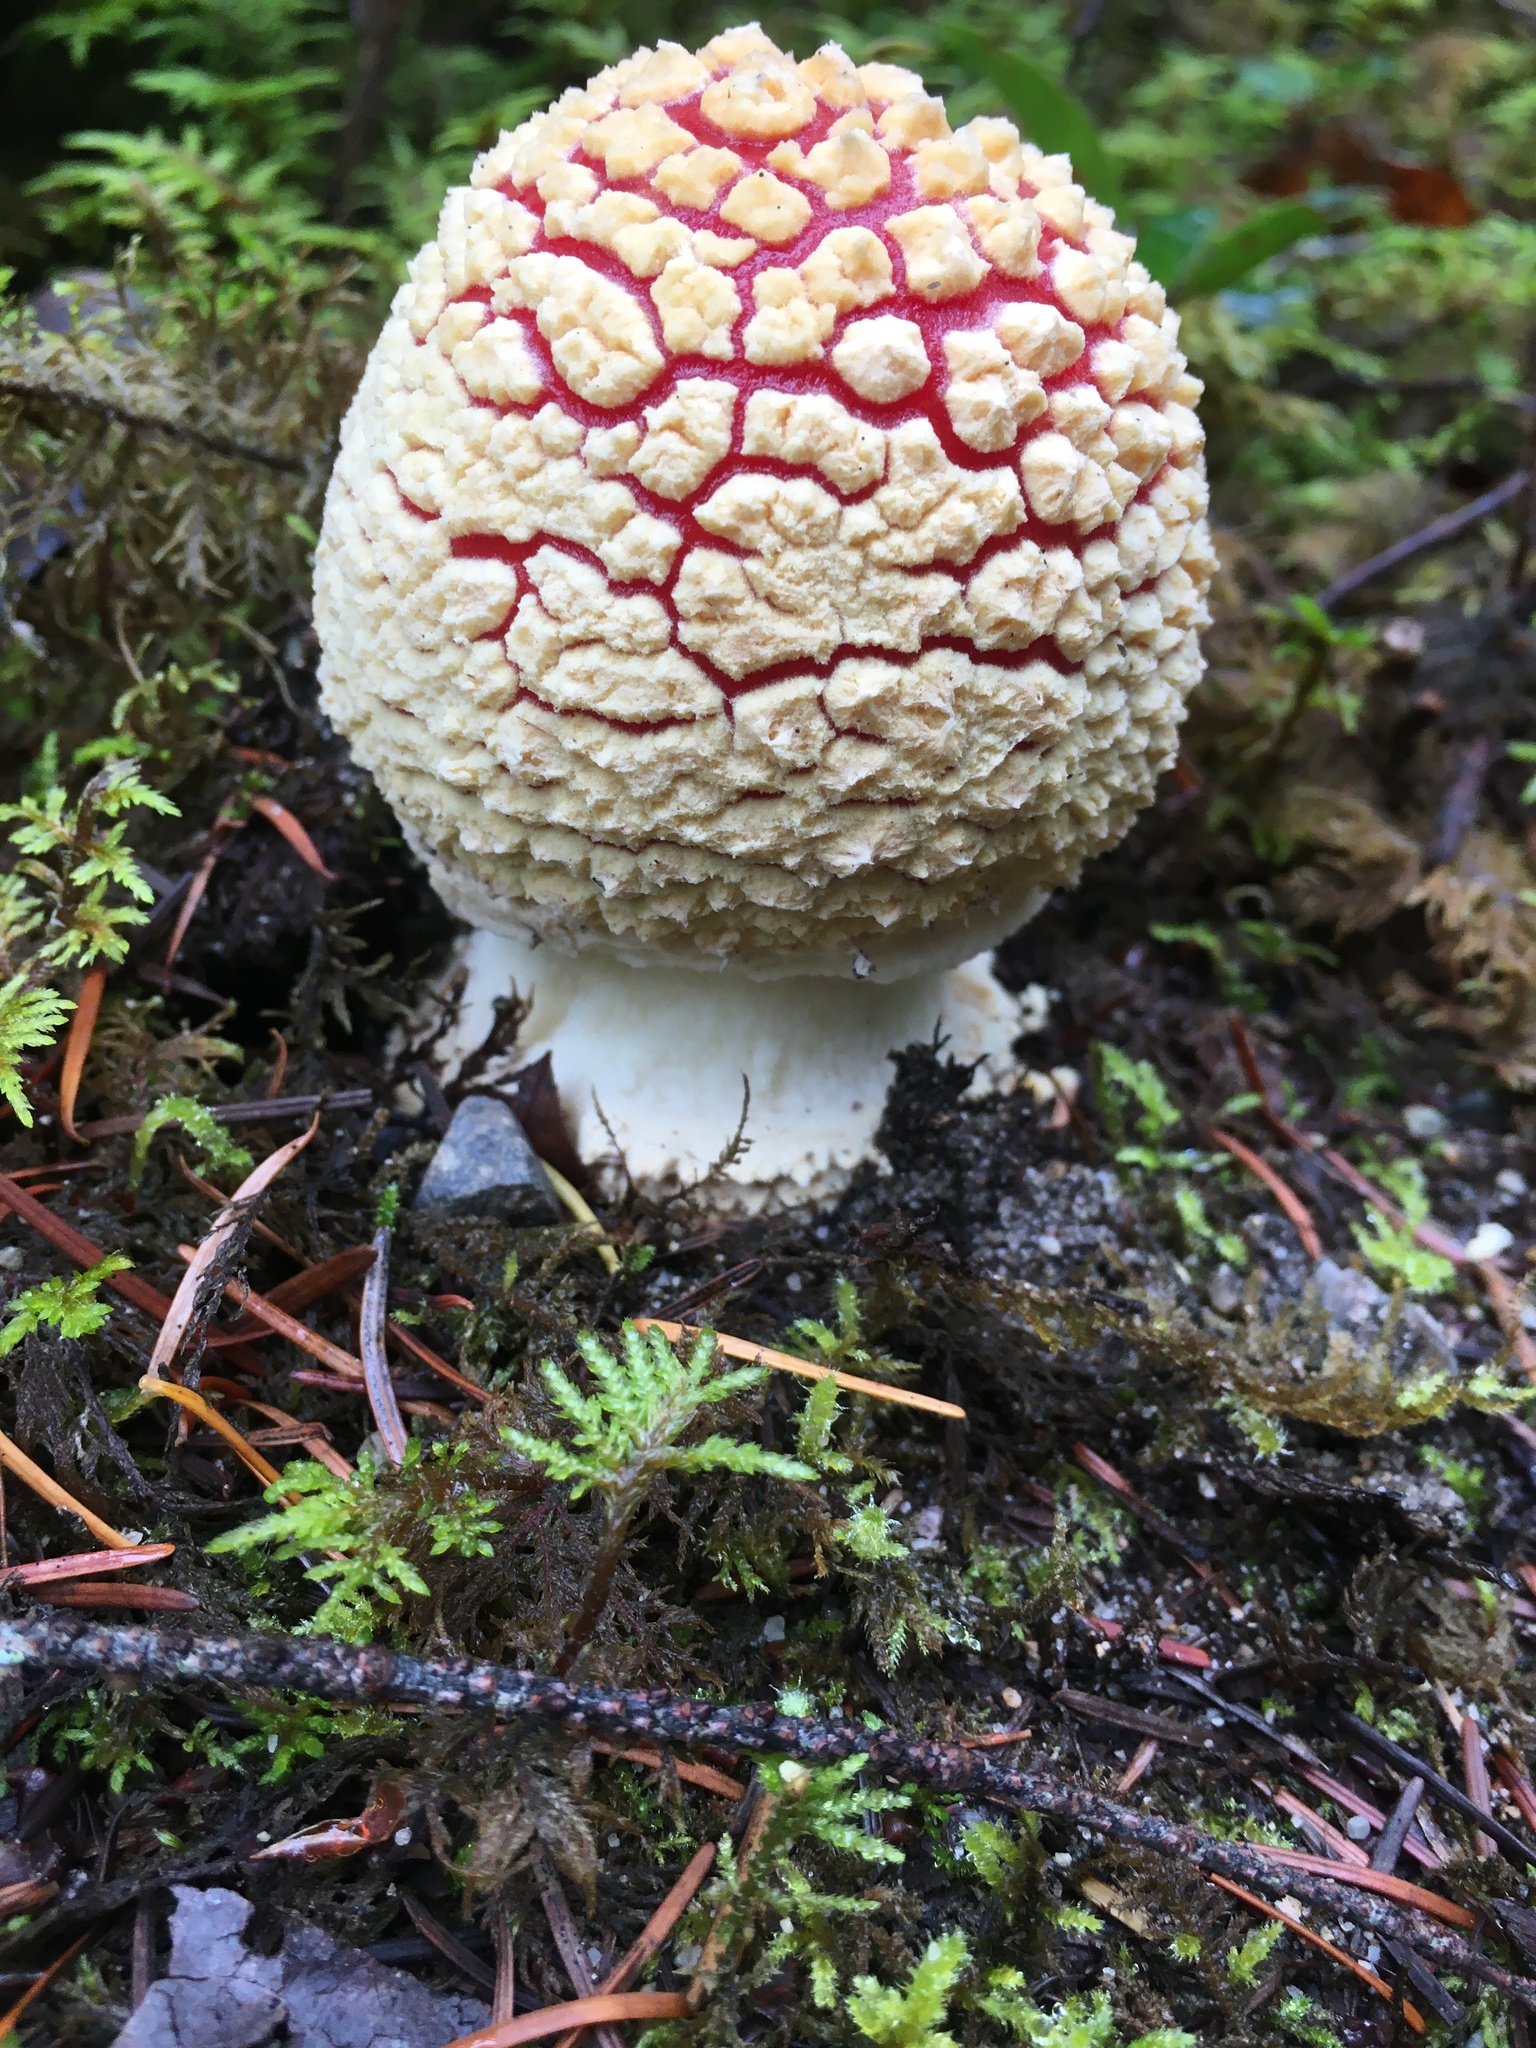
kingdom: Fungi
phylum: Basidiomycota
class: Agaricomycetes
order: Agaricales
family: Amanitaceae
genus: Amanita
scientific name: Amanita muscaria
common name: Fly agaric
